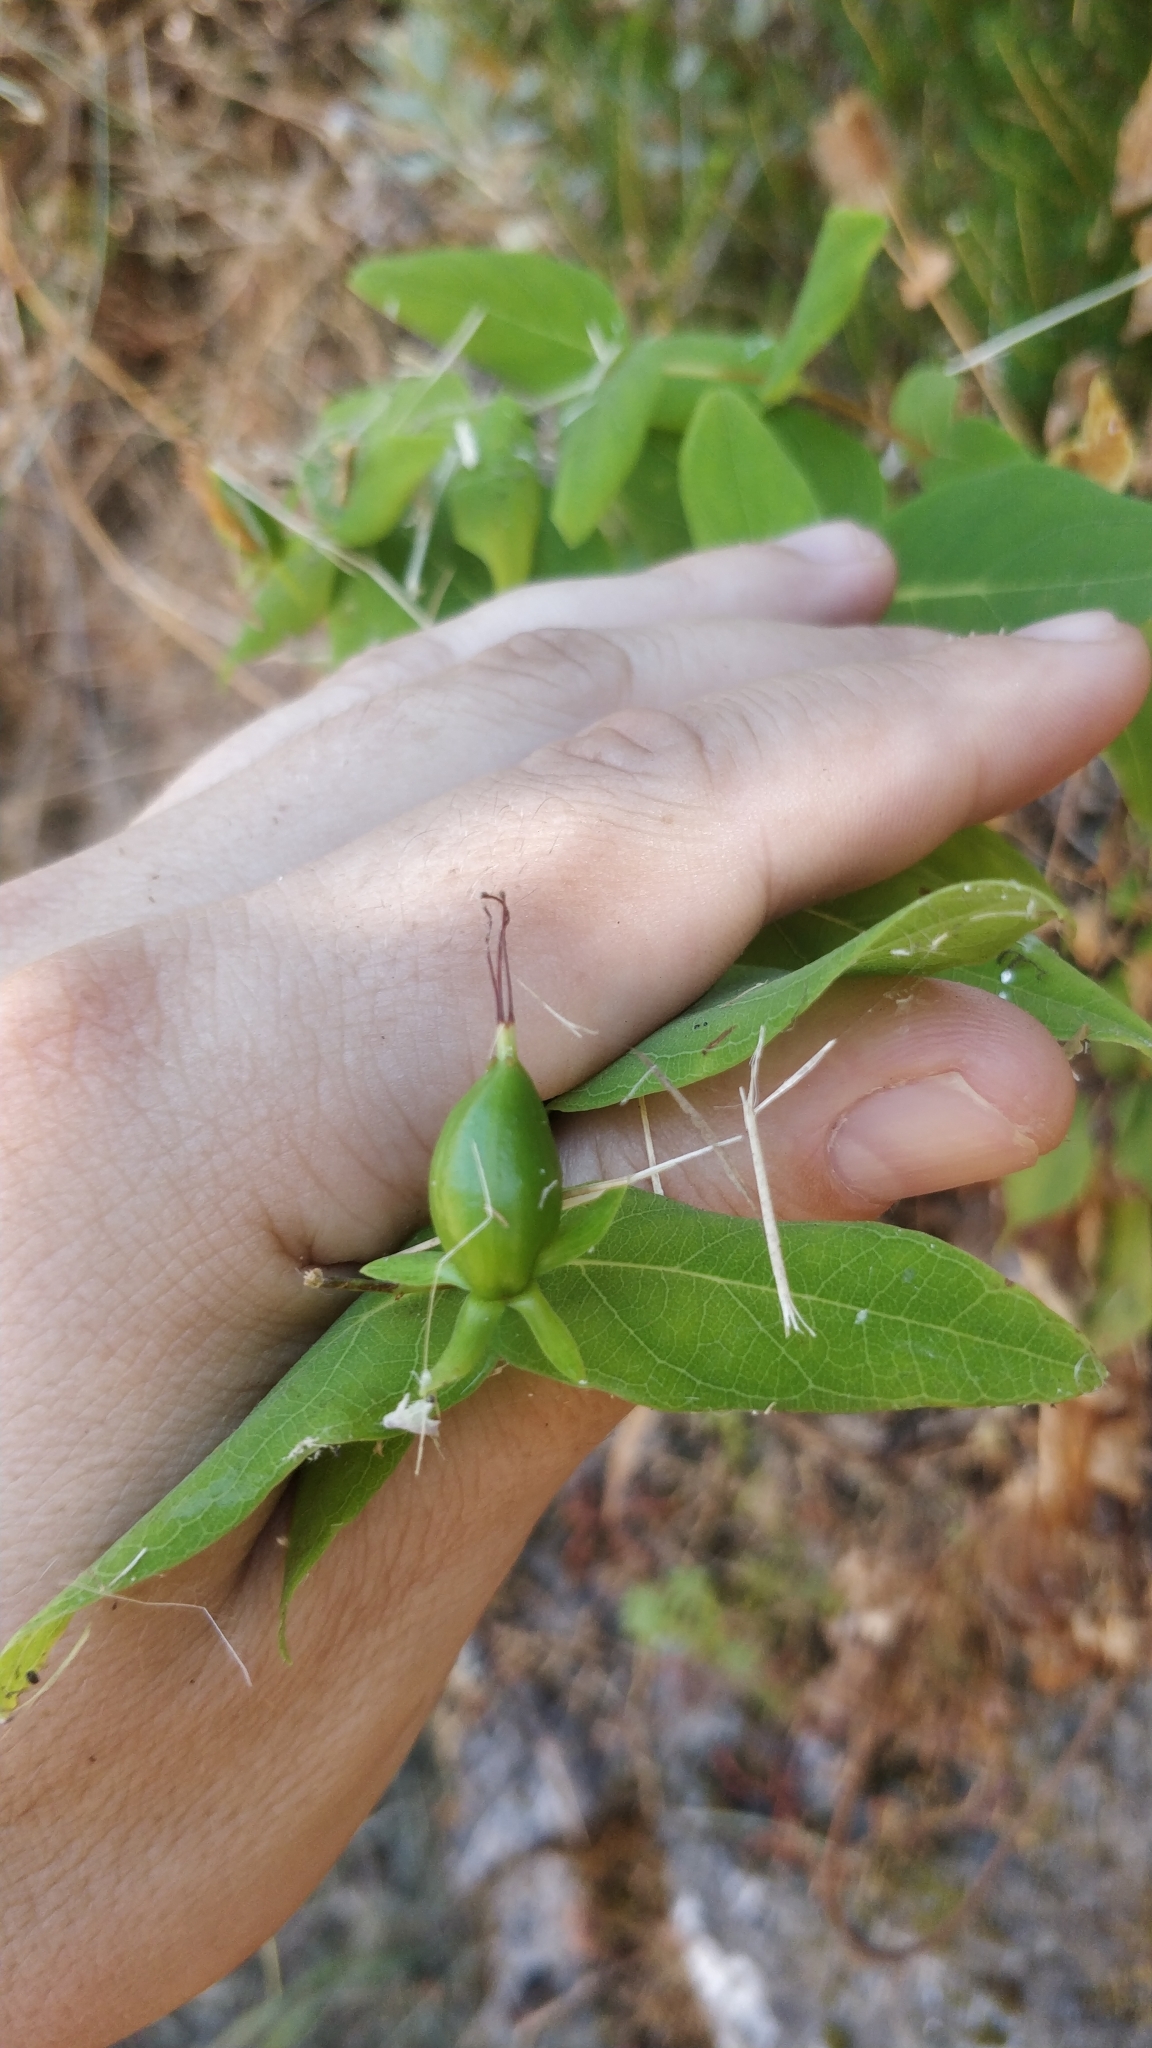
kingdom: Plantae
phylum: Tracheophyta
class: Magnoliopsida
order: Malpighiales
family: Hypericaceae
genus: Hypericum
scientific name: Hypericum grandifolium
